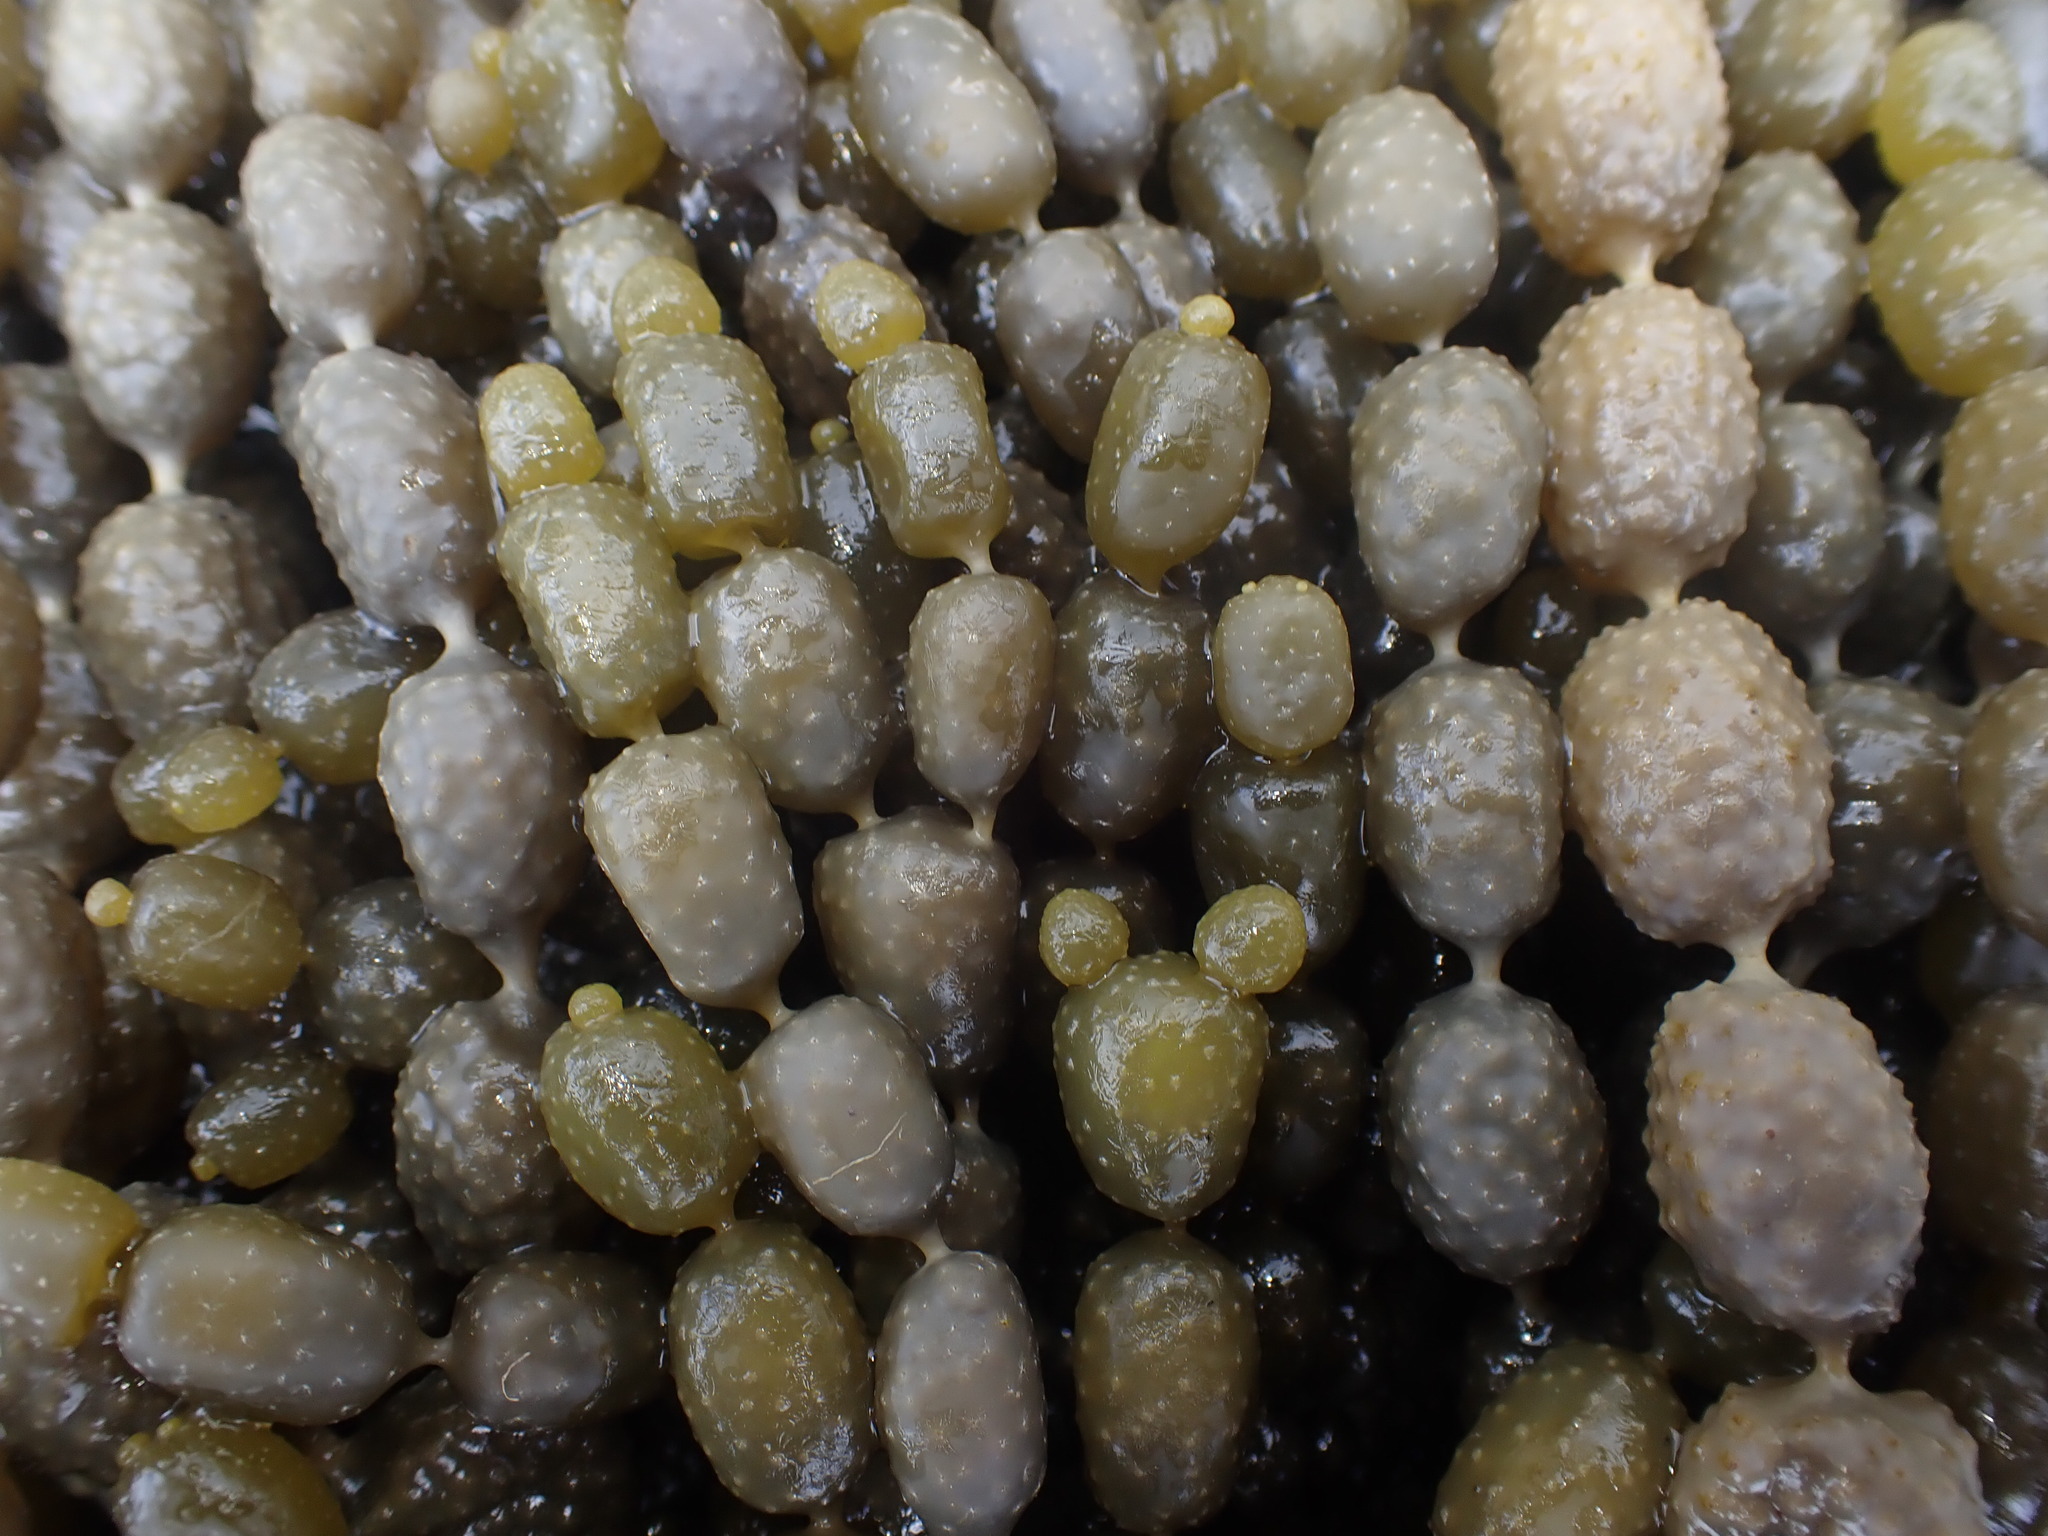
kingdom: Chromista
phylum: Ochrophyta
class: Phaeophyceae
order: Fucales
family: Hormosiraceae
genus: Hormosira
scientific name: Hormosira banksii
